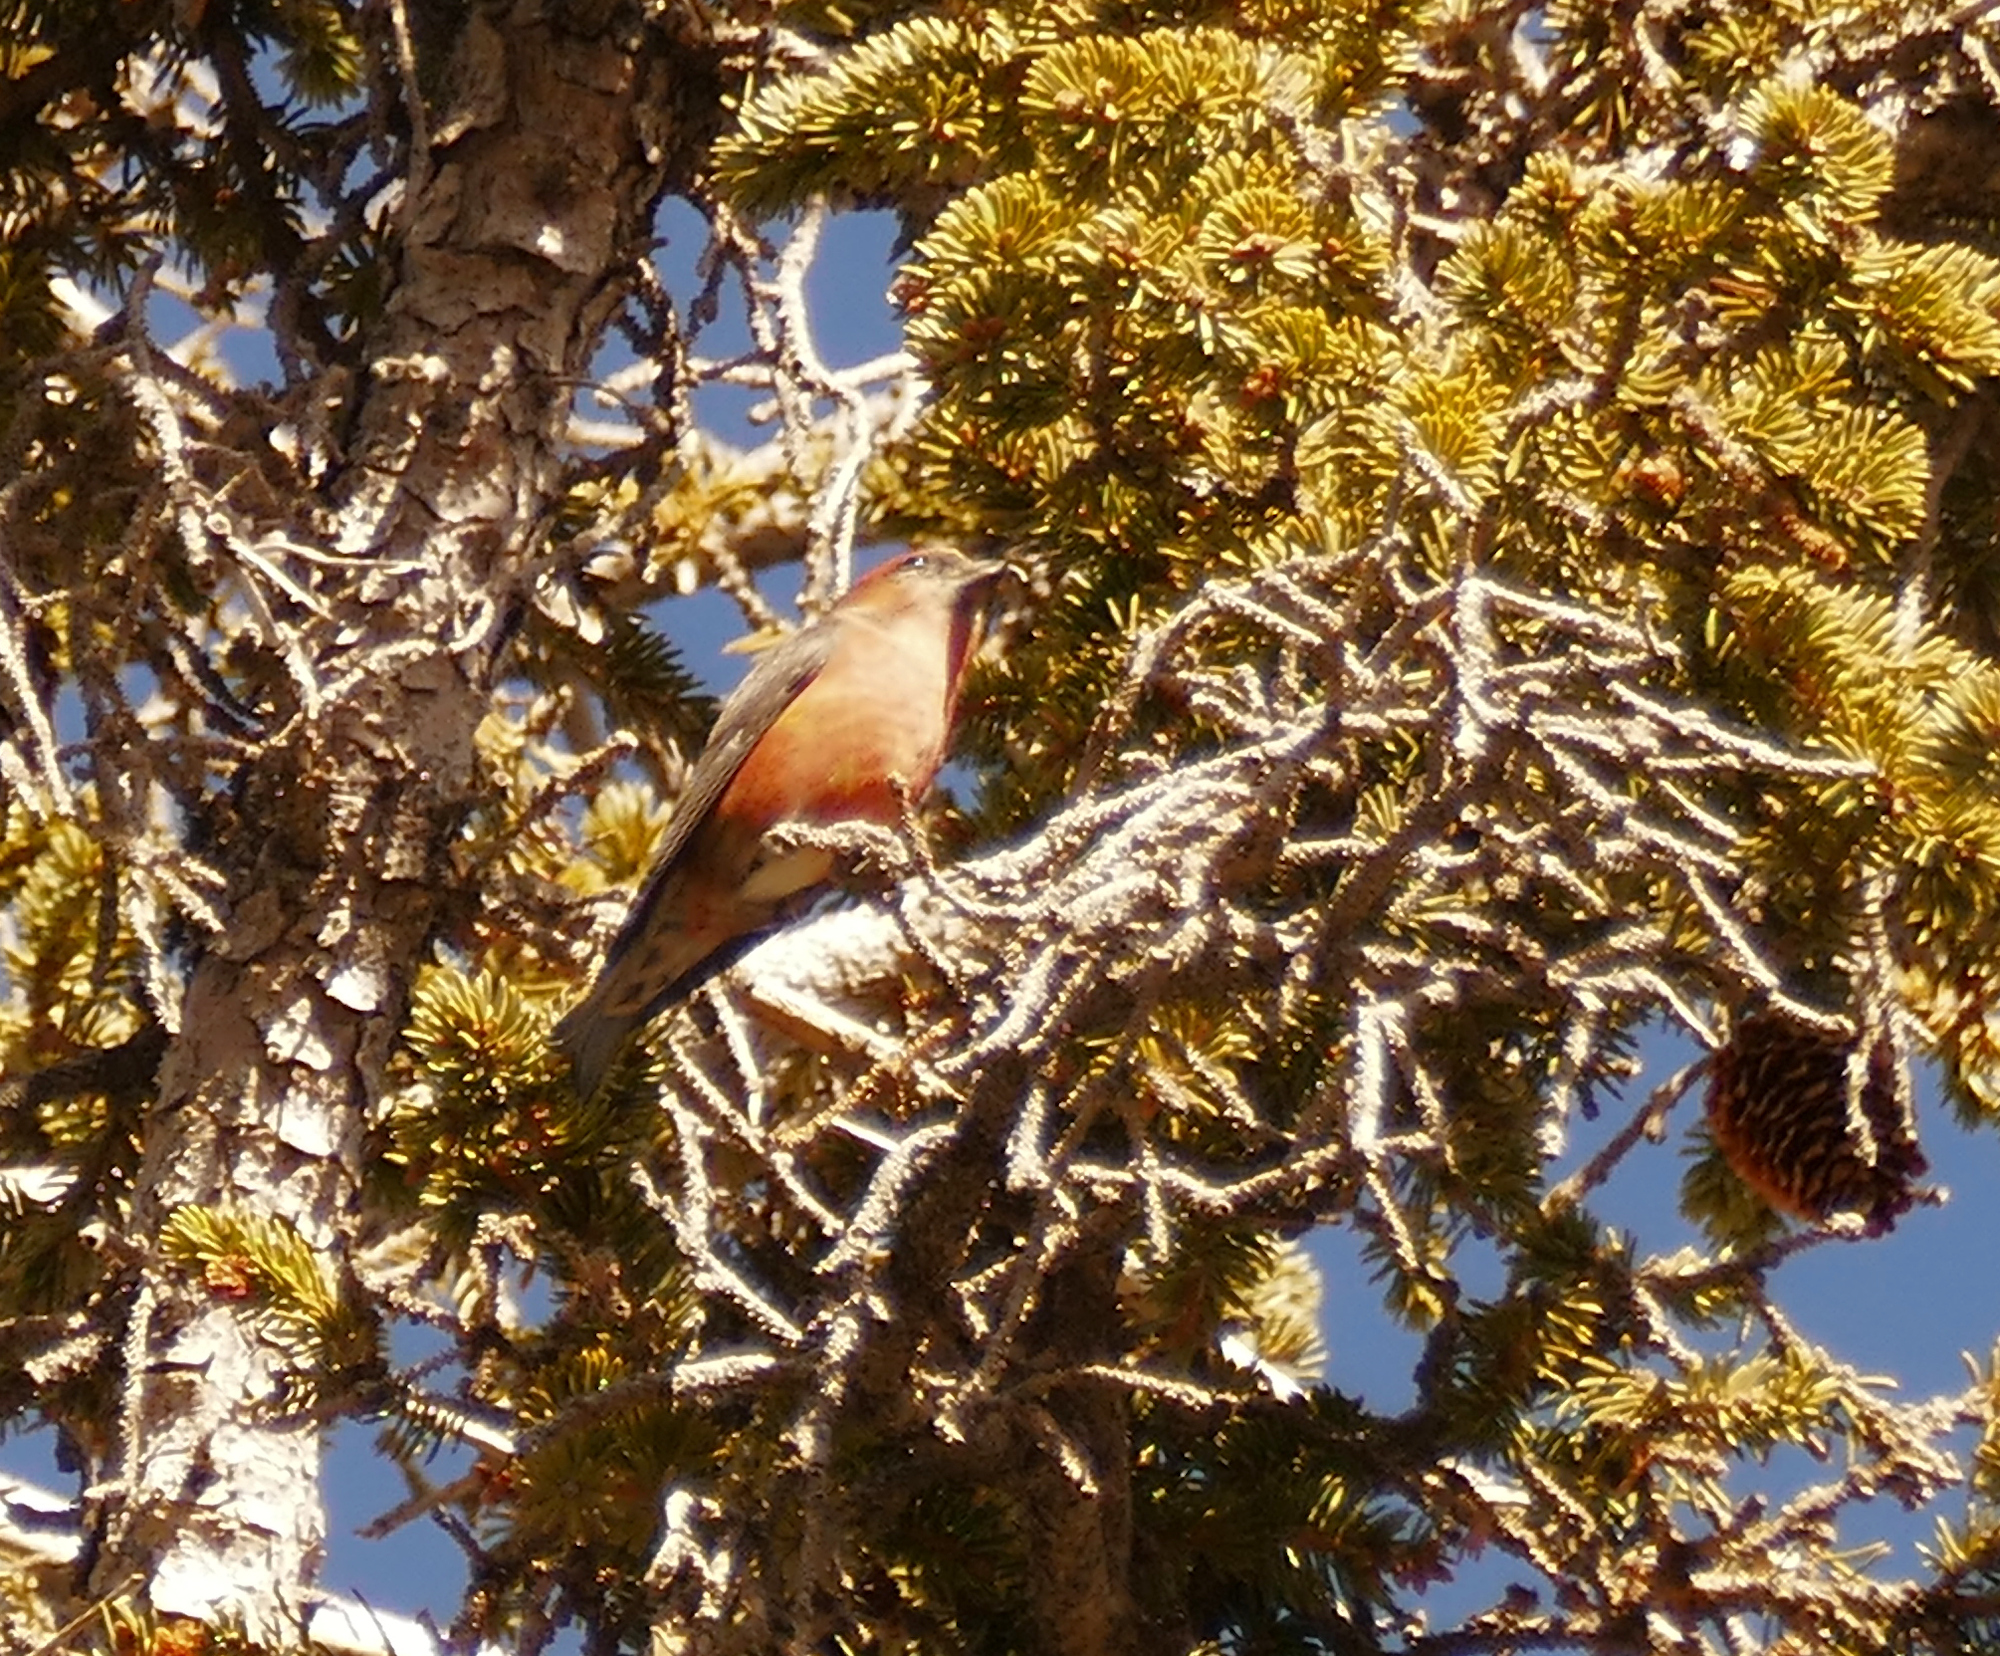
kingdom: Animalia
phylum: Chordata
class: Aves
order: Passeriformes
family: Fringillidae
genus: Loxia
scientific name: Loxia curvirostra
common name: Red crossbill
